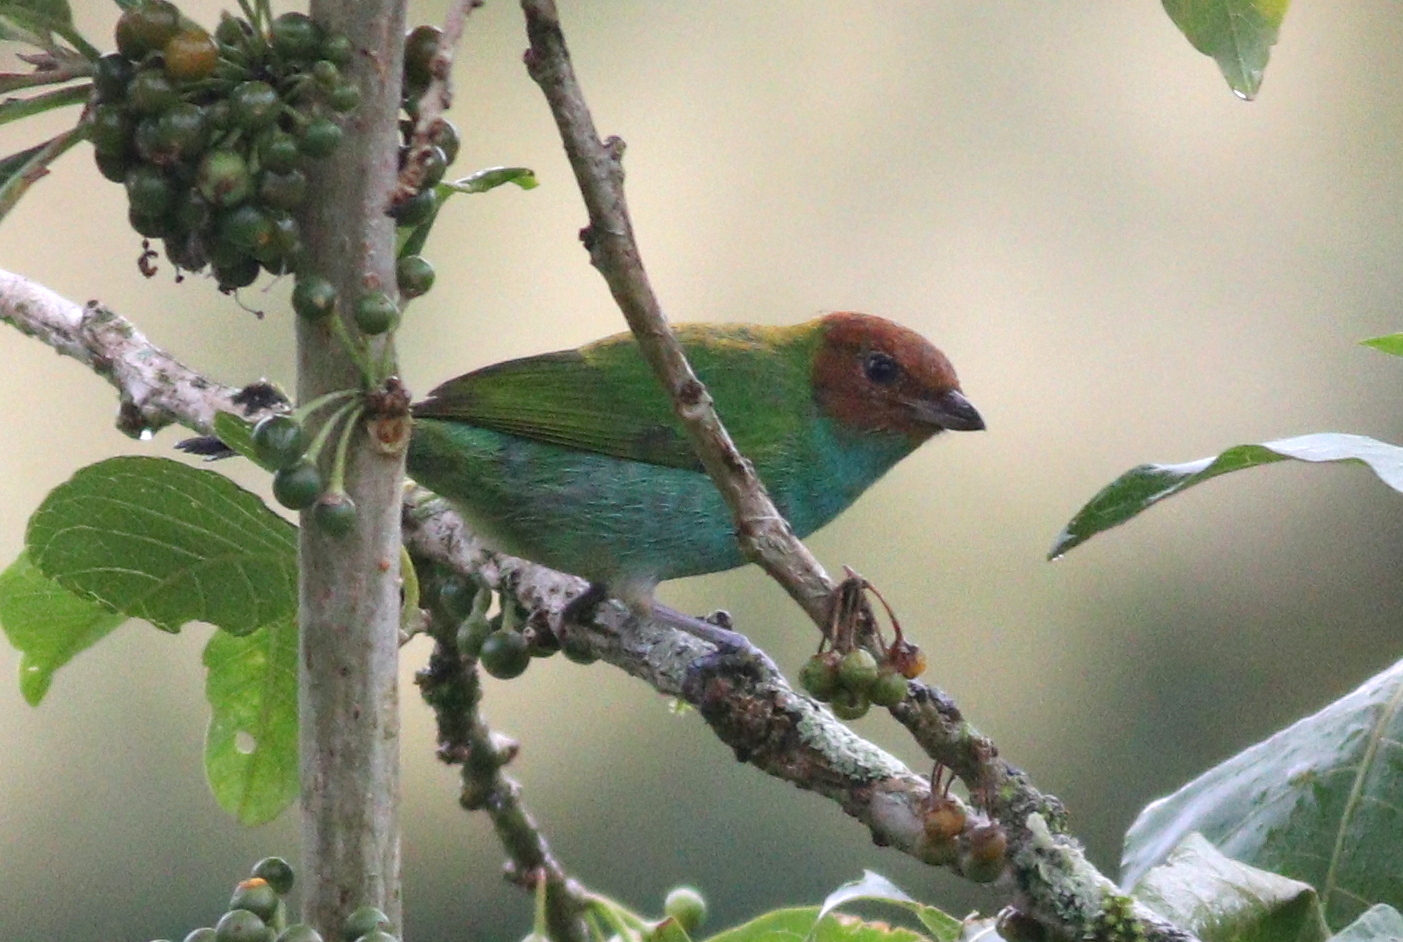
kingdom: Animalia
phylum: Chordata
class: Aves
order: Passeriformes
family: Thraupidae
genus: Tangara
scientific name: Tangara gyrola
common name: Bay-headed tanager
